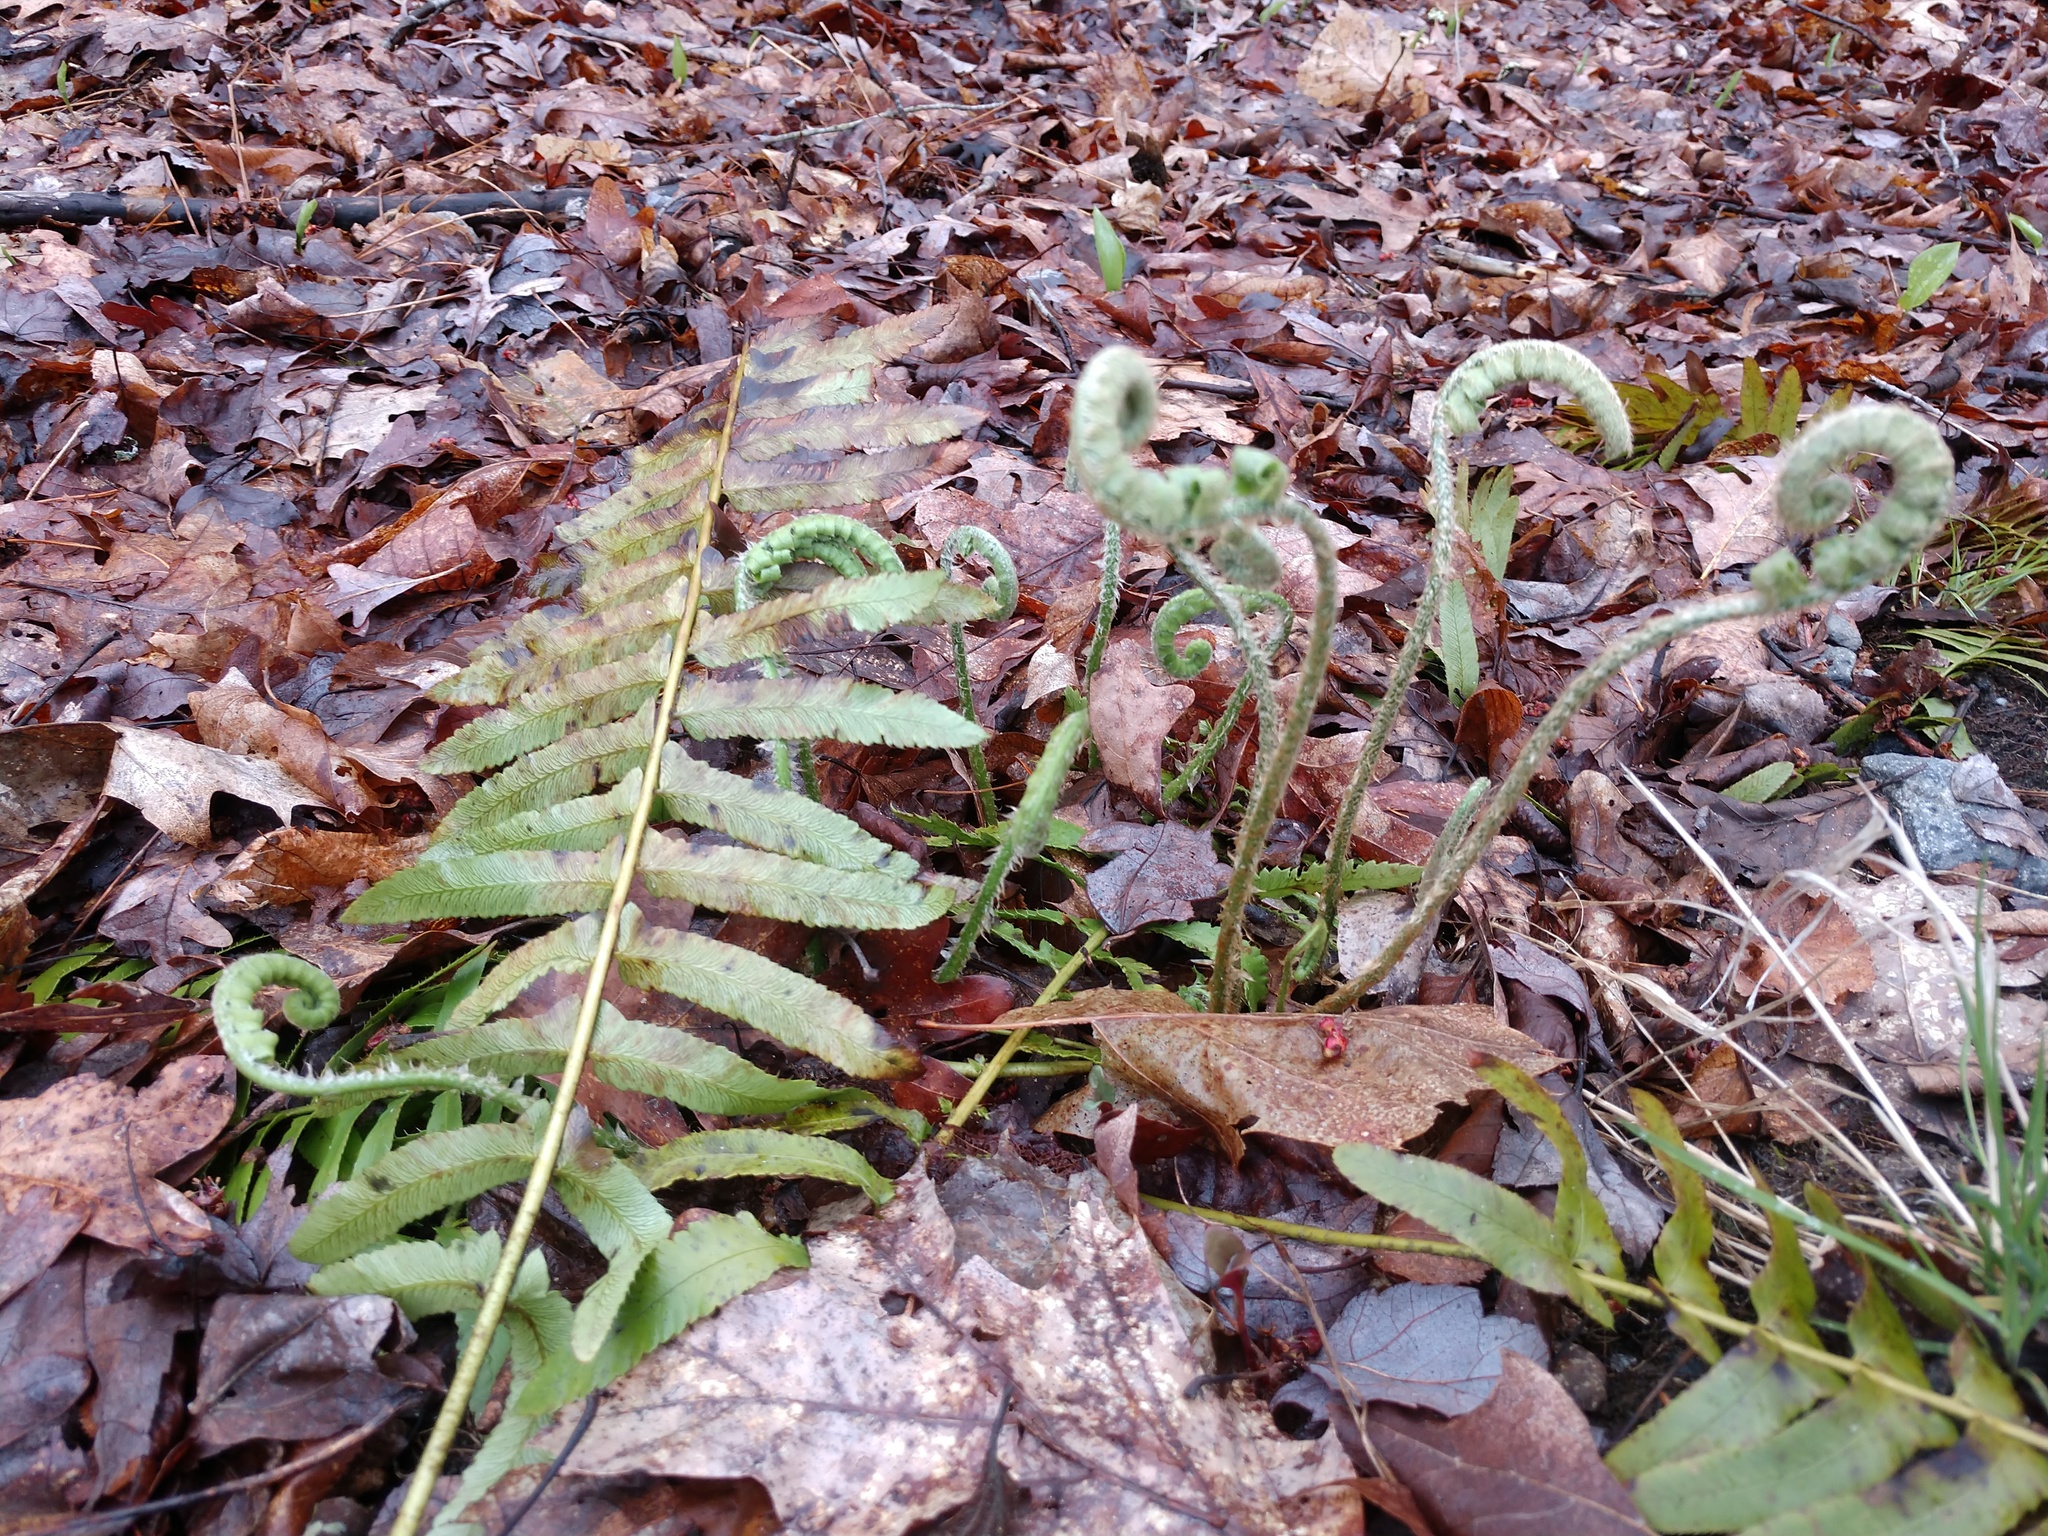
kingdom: Plantae
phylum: Tracheophyta
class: Polypodiopsida
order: Polypodiales
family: Dryopteridaceae
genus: Polystichum
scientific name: Polystichum acrostichoides
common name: Christmas fern
